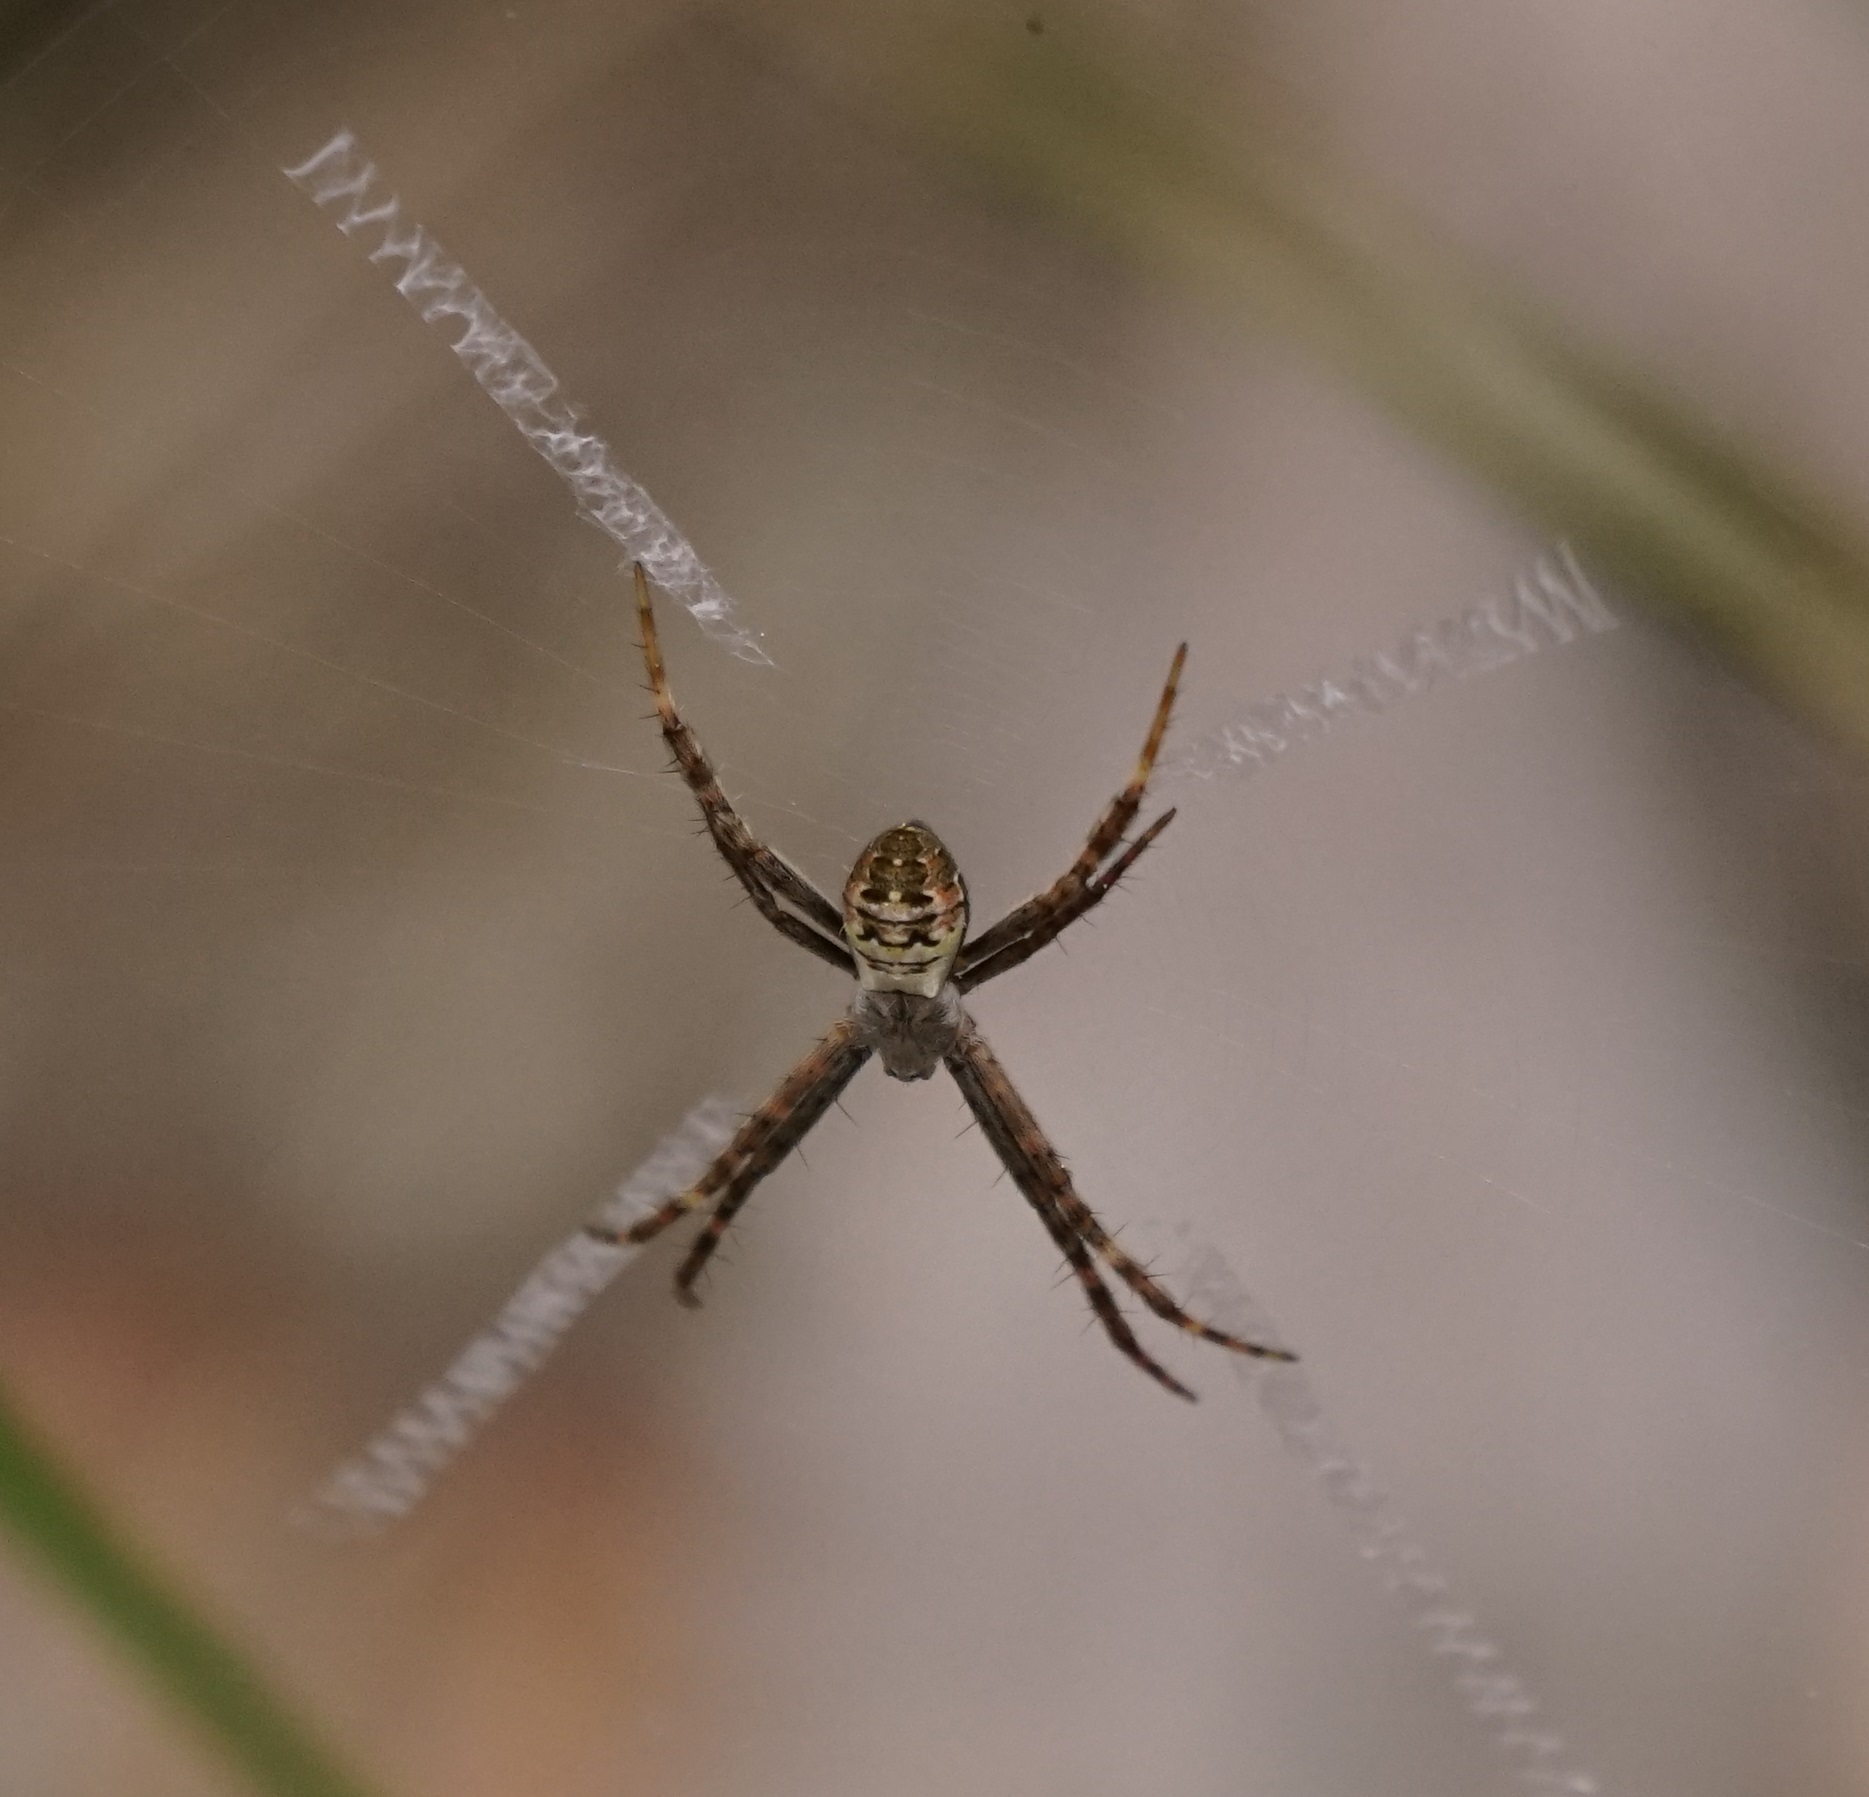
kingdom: Animalia
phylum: Arthropoda
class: Arachnida
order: Araneae
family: Araneidae
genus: Argiope
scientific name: Argiope keyserlingi
